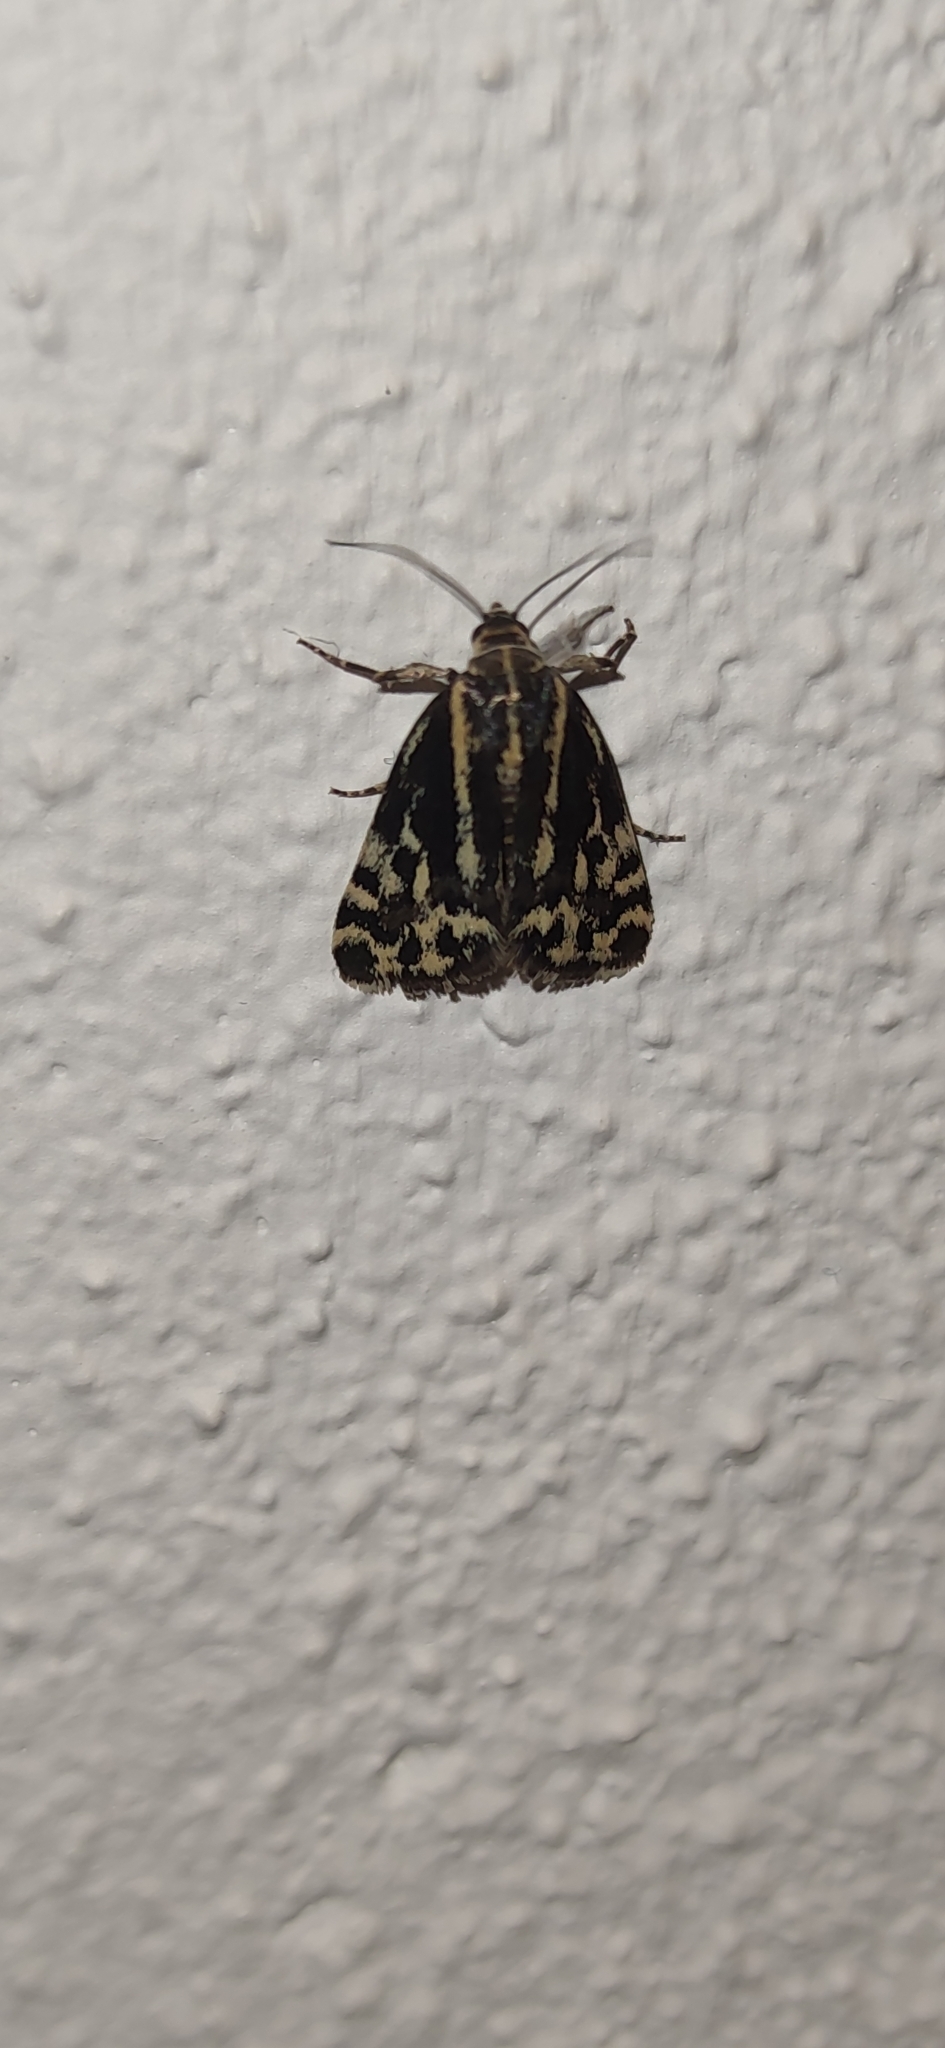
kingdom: Animalia
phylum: Arthropoda
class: Insecta
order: Lepidoptera
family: Noctuidae
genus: Acontia
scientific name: Acontia trabealis
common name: Spotted sulphur
